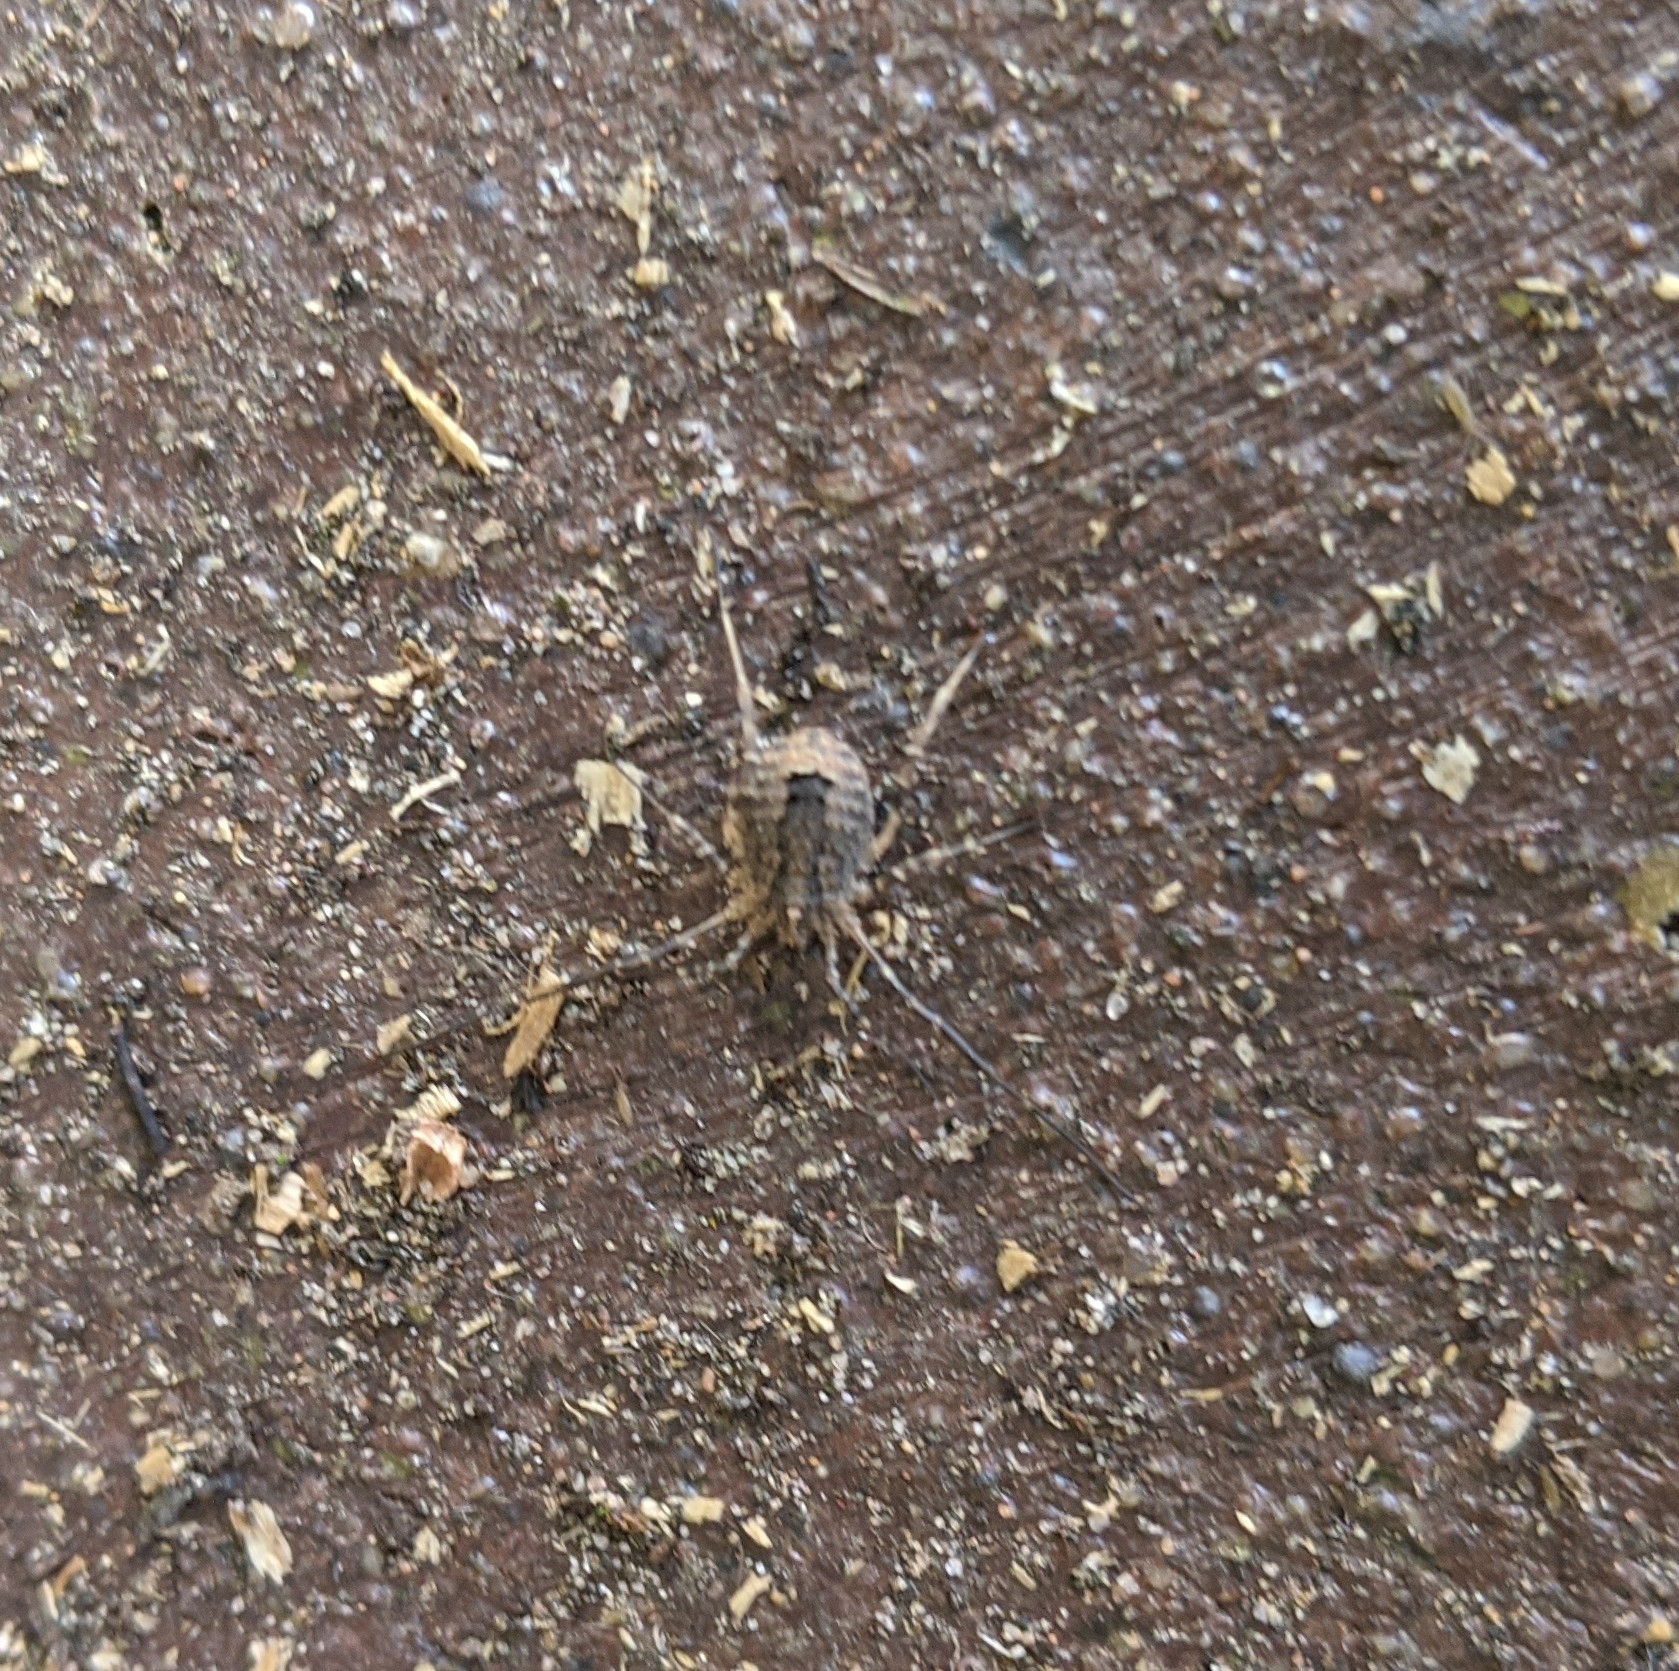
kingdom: Animalia
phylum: Arthropoda
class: Arachnida
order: Opiliones
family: Phalangiidae
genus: Odiellus
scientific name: Odiellus spinosus
